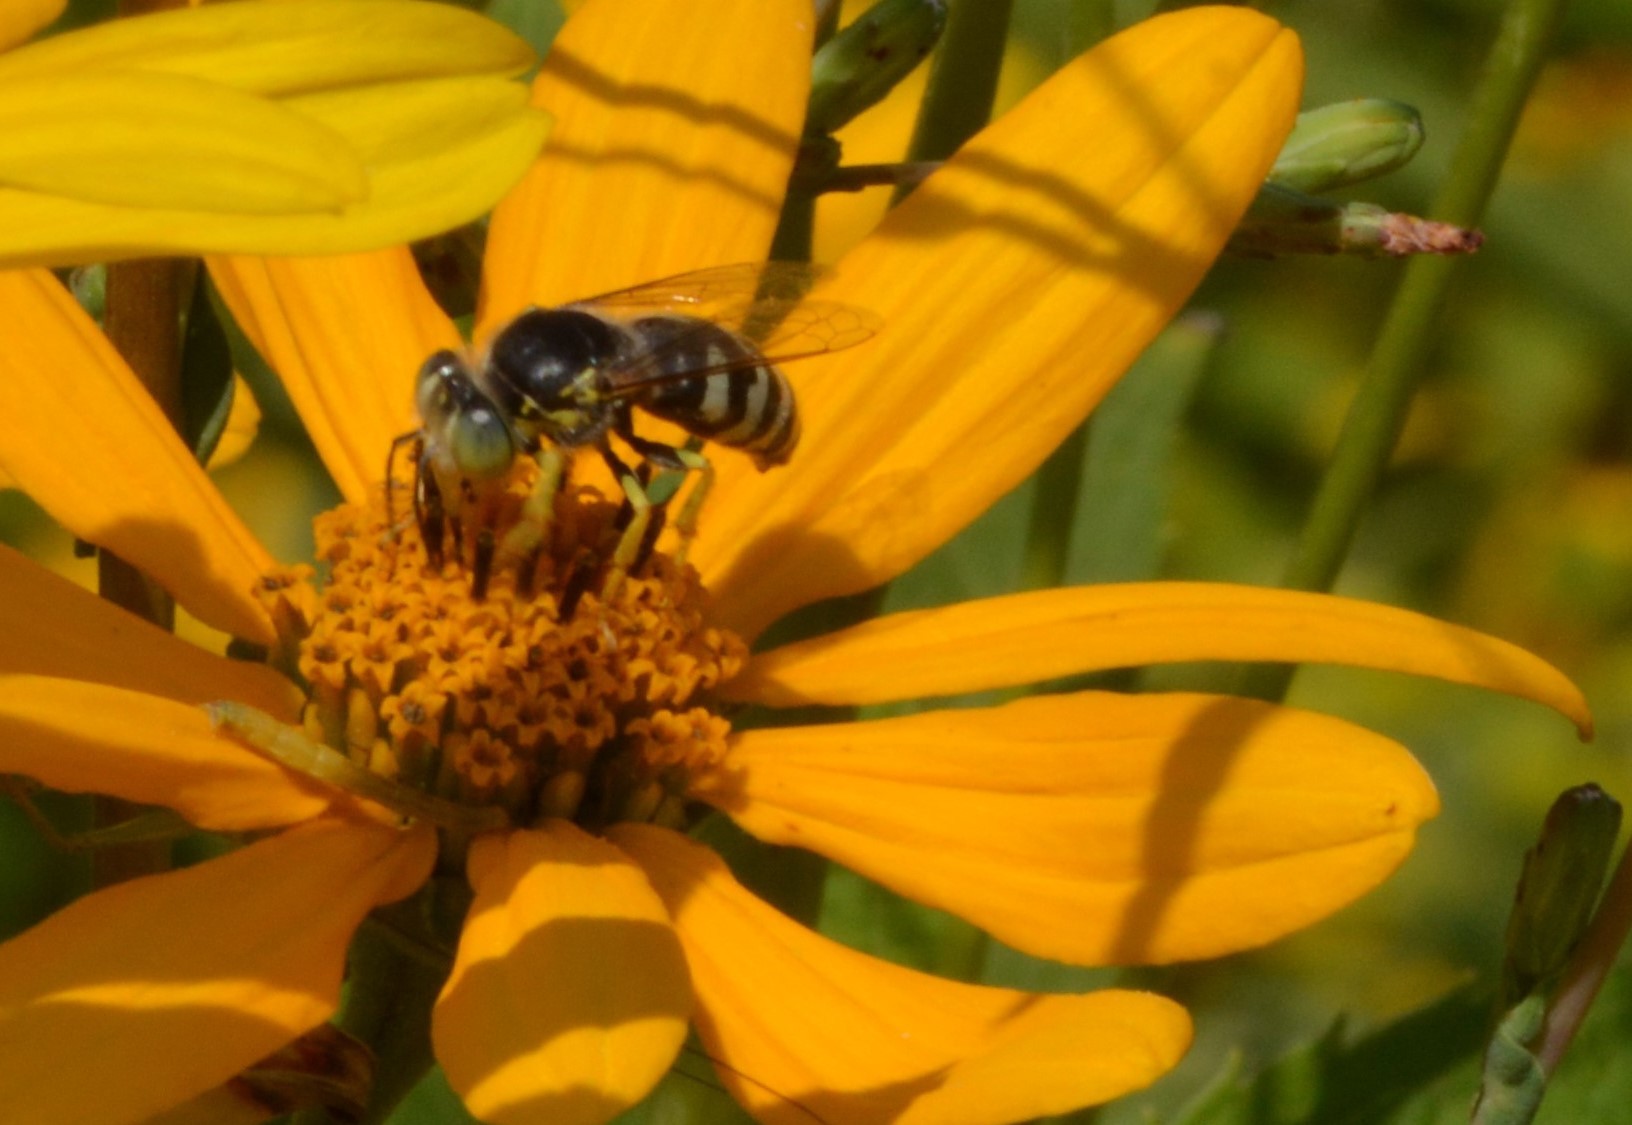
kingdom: Animalia
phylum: Arthropoda
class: Insecta
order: Hymenoptera
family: Crabronidae
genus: Bembix
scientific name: Bembix americana
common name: American sand wasp
